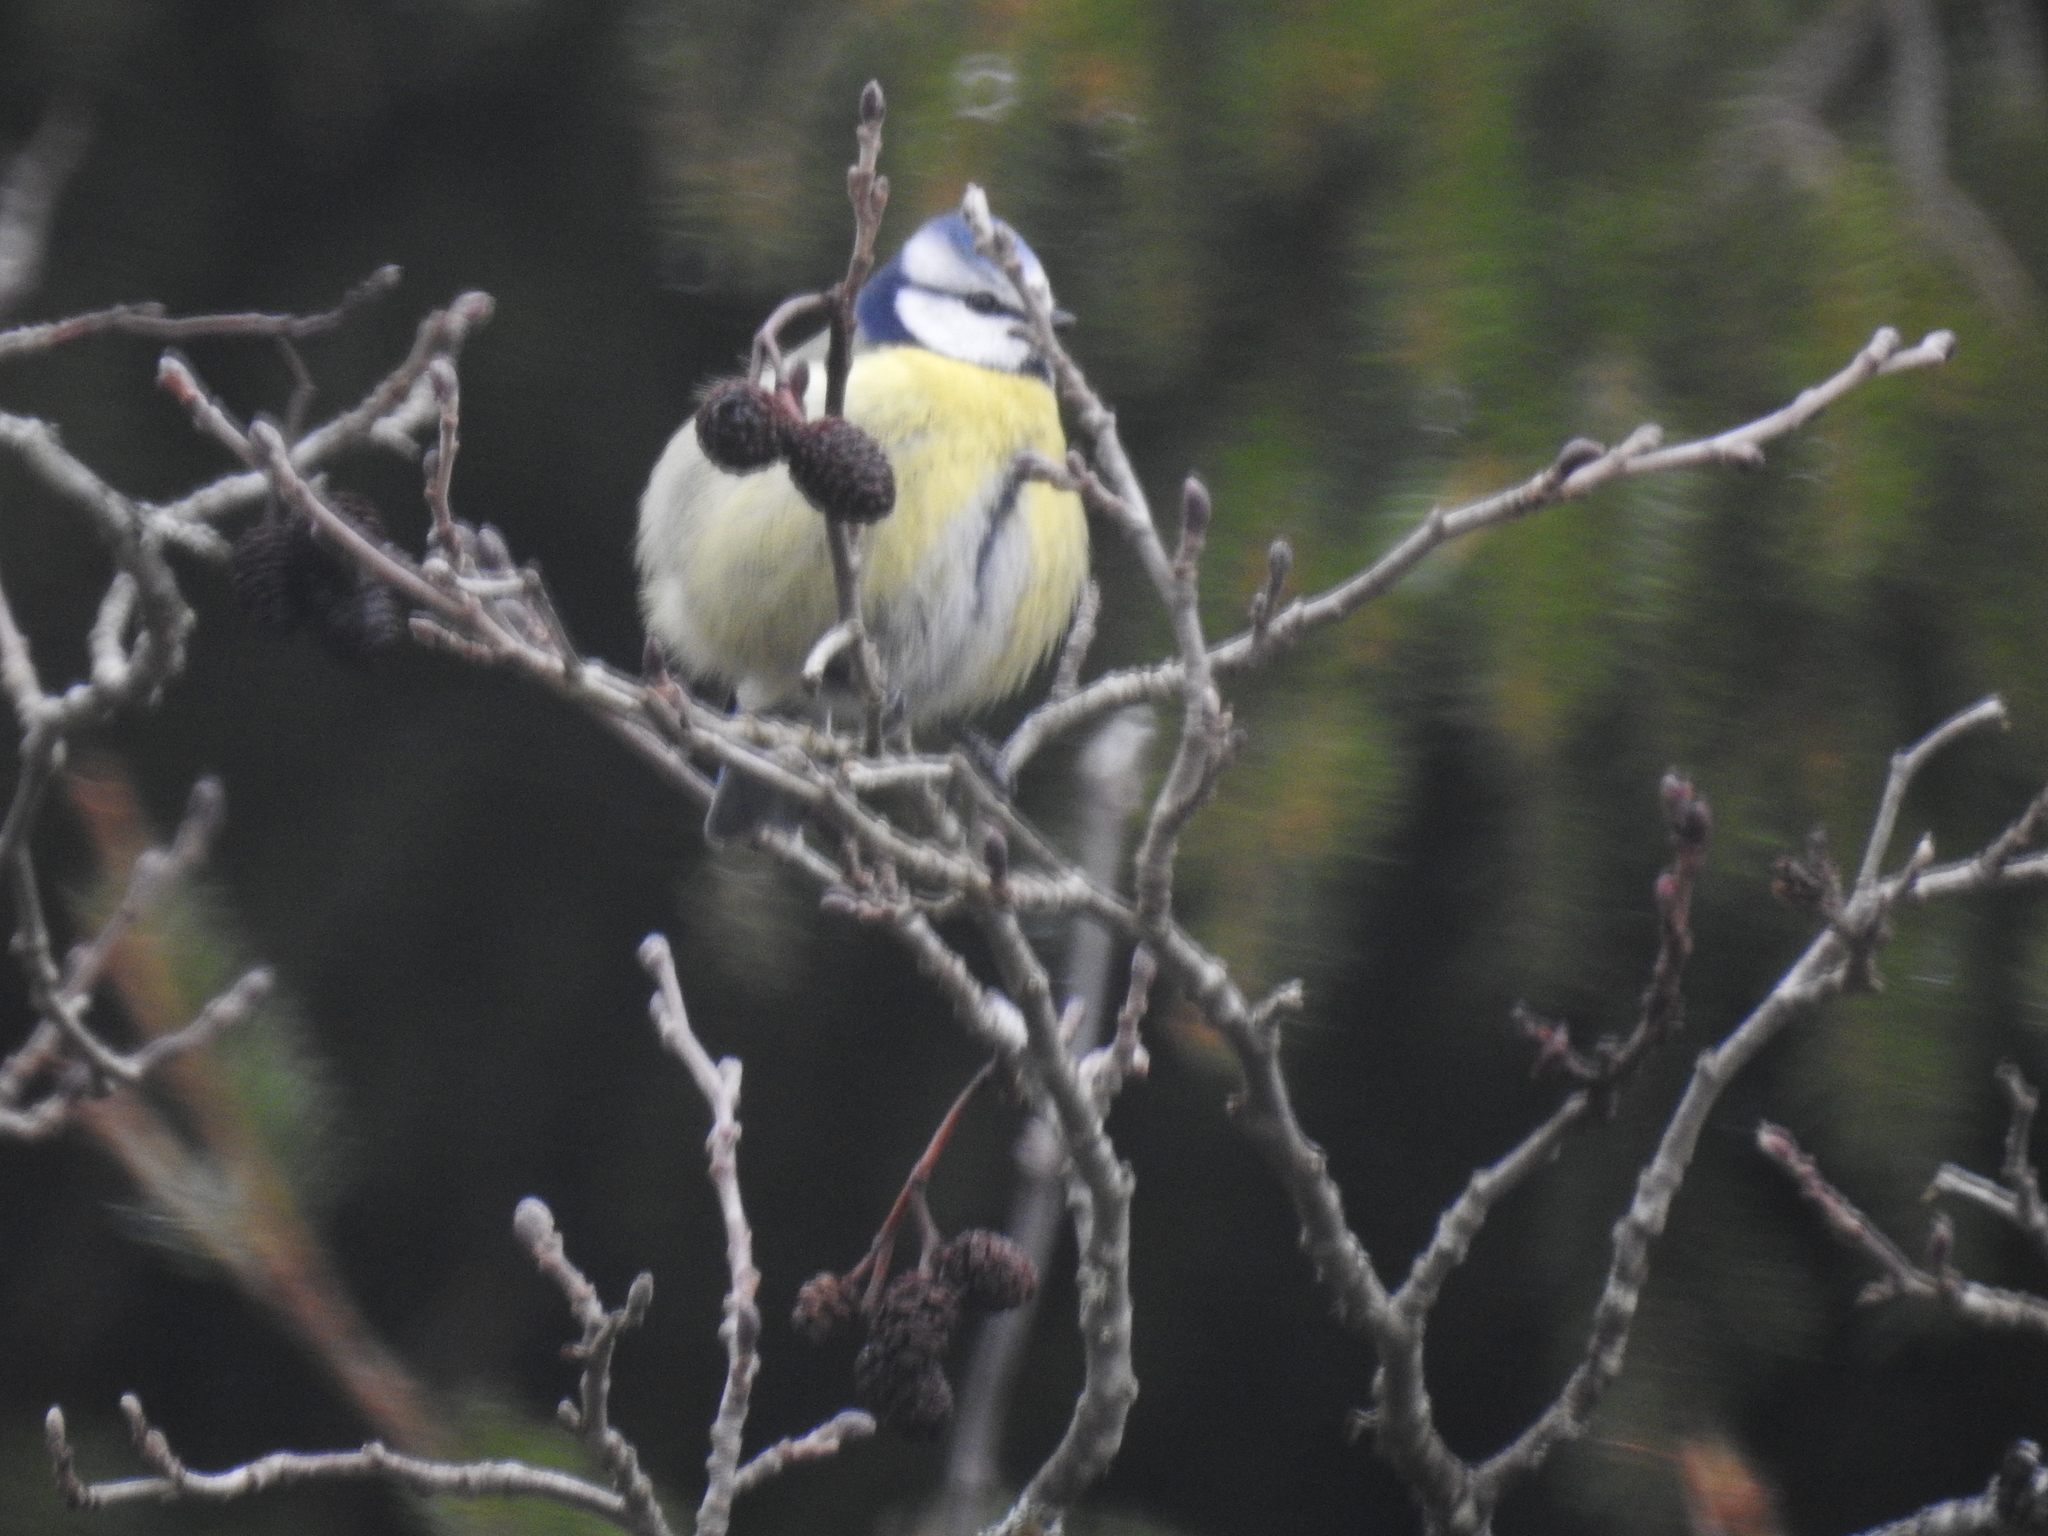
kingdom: Animalia
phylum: Chordata
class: Aves
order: Passeriformes
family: Paridae
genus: Cyanistes
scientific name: Cyanistes caeruleus
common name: Eurasian blue tit
